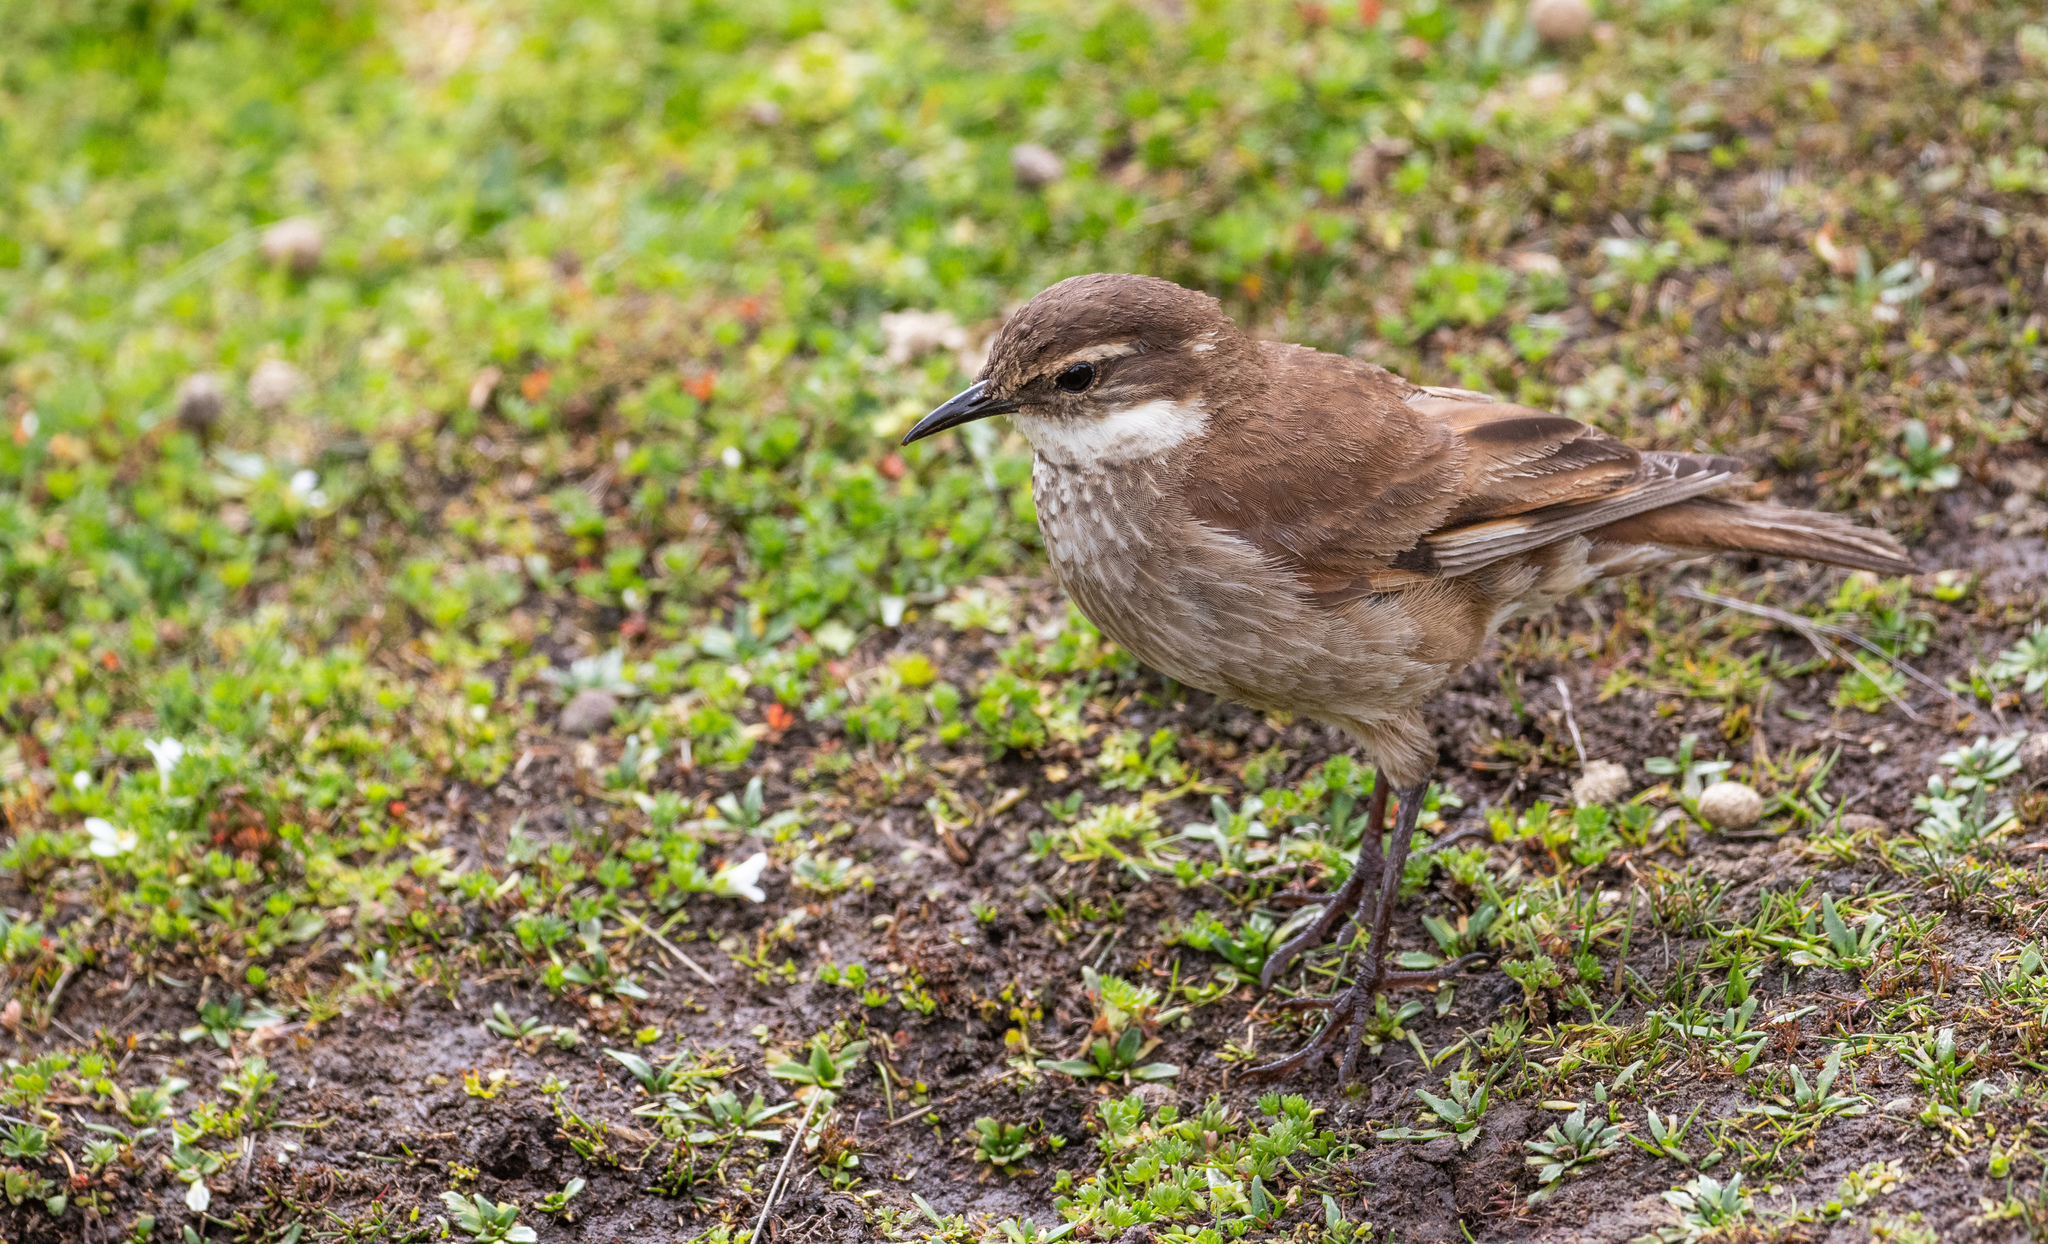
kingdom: Animalia
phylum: Chordata
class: Aves
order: Passeriformes
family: Furnariidae
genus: Cinclodes
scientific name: Cinclodes albidiventris
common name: Chestnut-winged cinclodes
